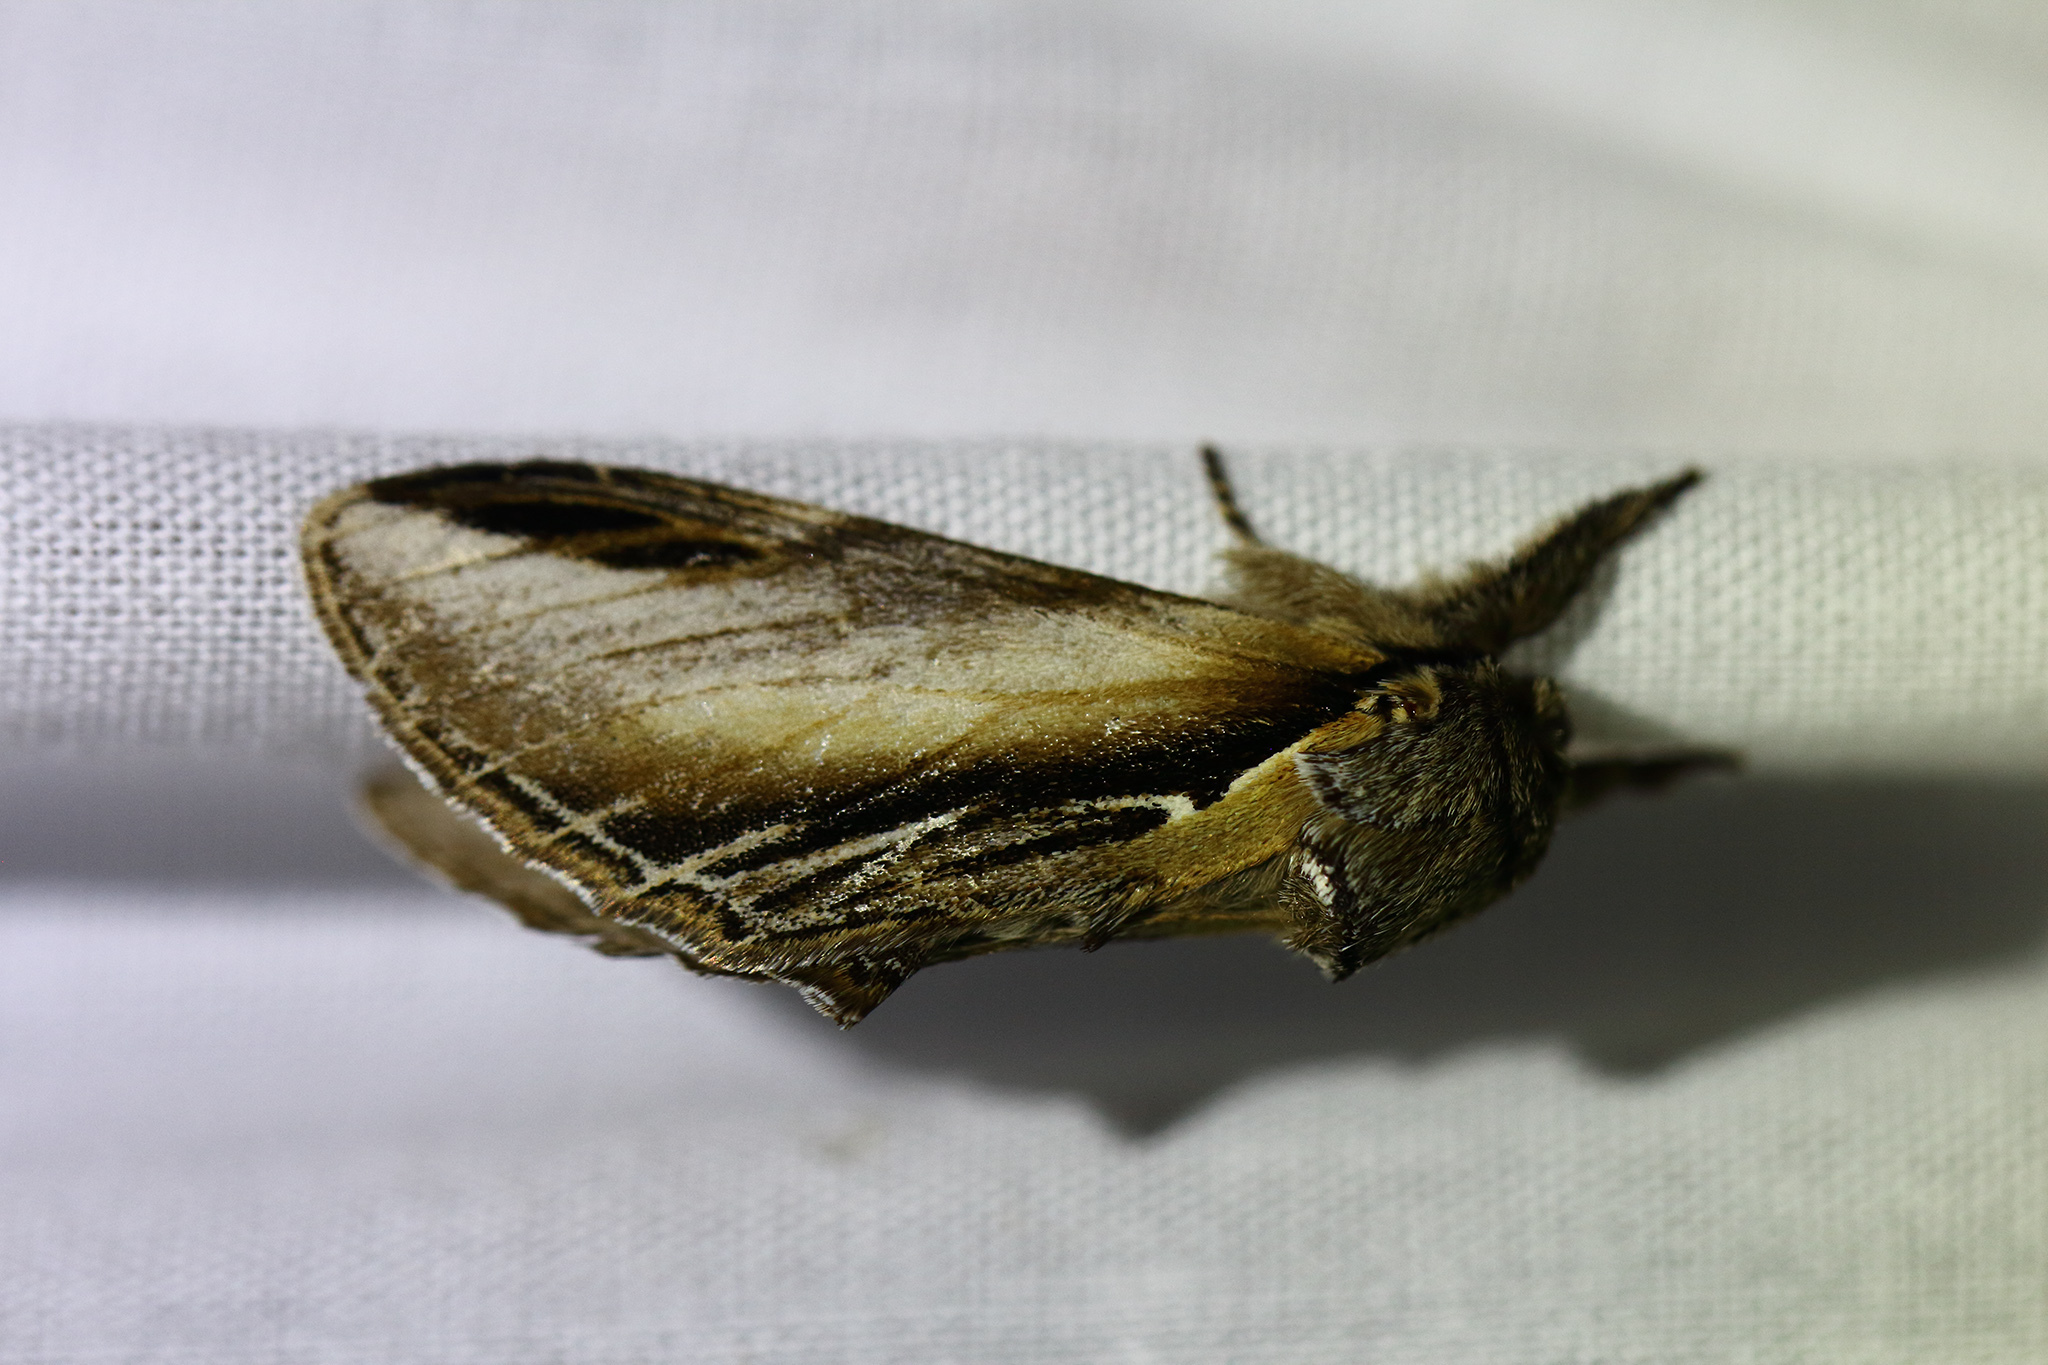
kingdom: Animalia
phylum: Arthropoda
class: Insecta
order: Lepidoptera
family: Notodontidae
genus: Pheosia
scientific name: Pheosia tremula
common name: Swallow prominent
